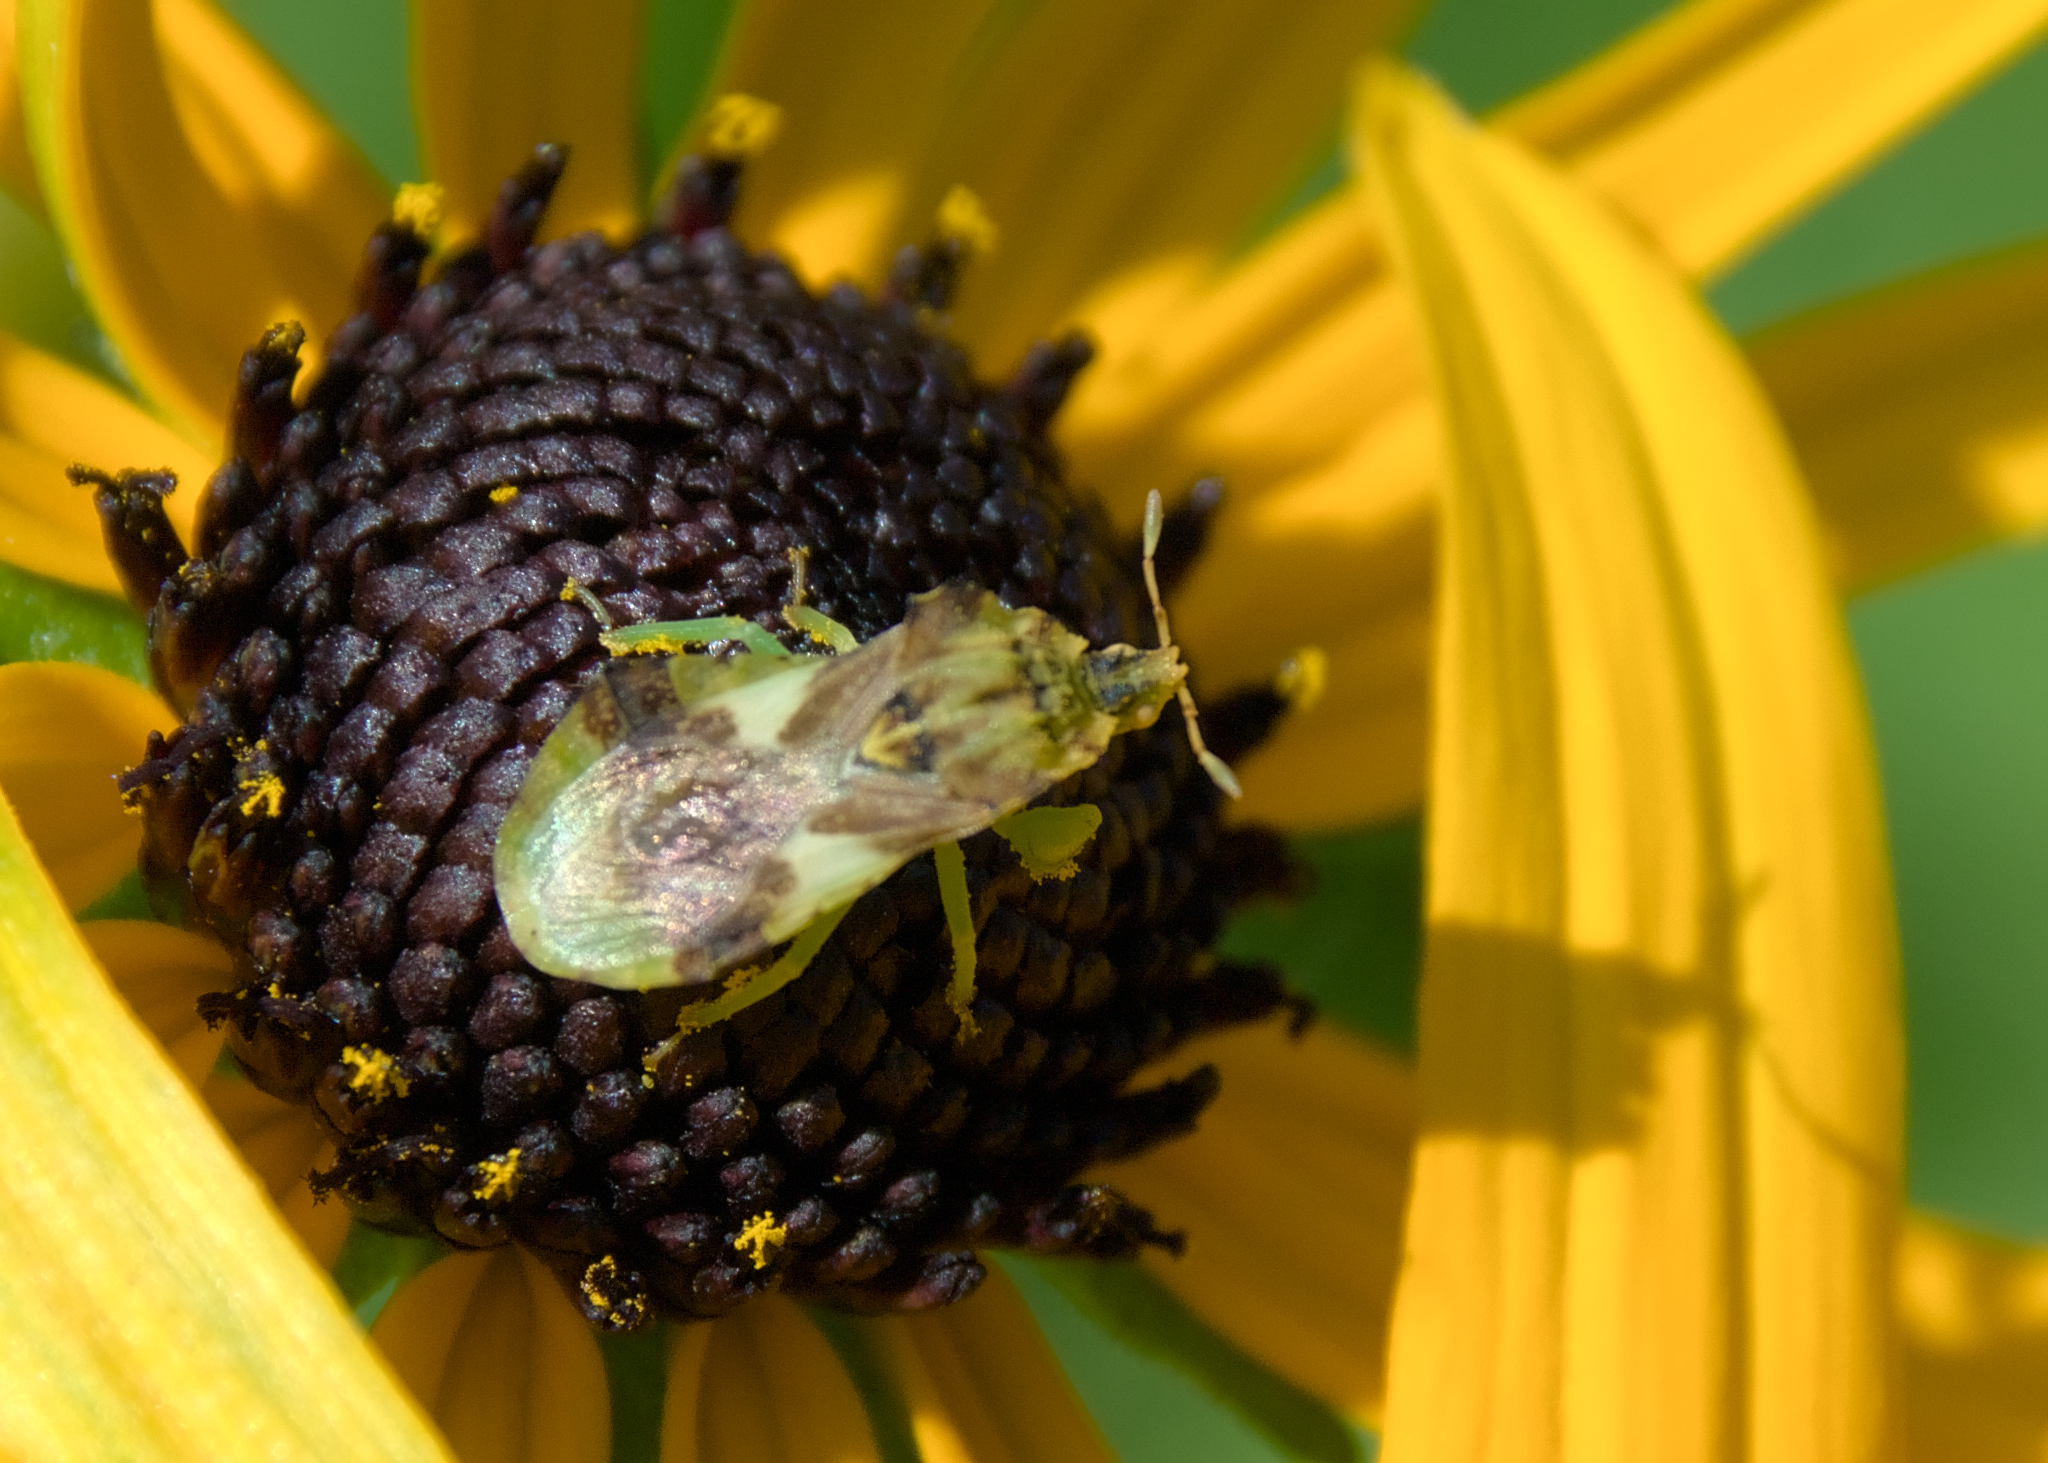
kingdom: Animalia
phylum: Arthropoda
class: Insecta
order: Hemiptera
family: Reduviidae
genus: Phymata
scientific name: Phymata americana
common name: Jagged ambush bug
